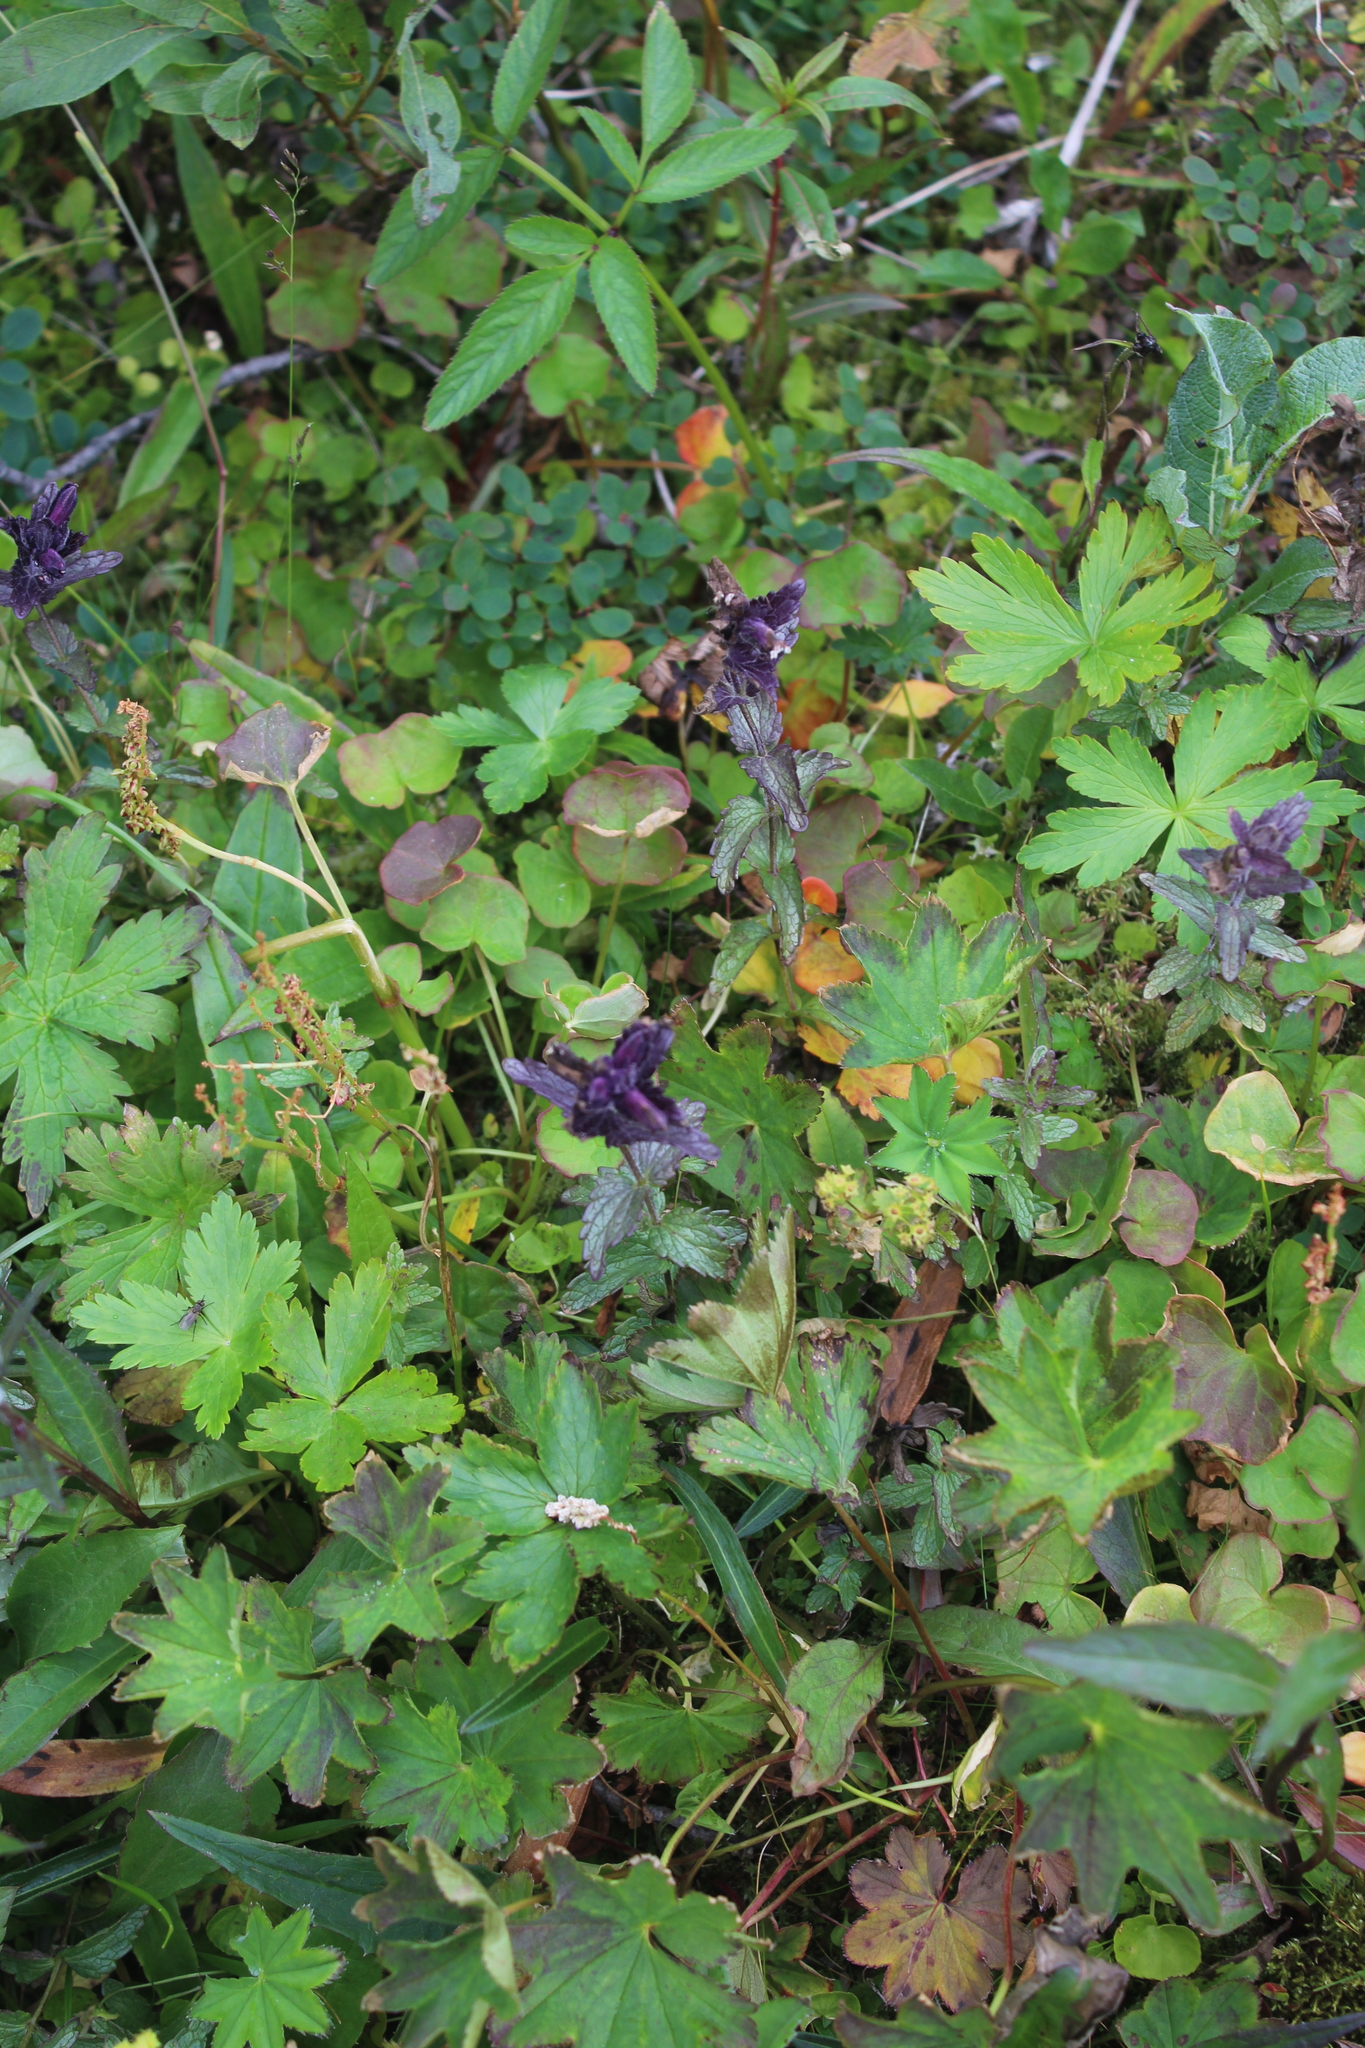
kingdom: Plantae
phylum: Tracheophyta
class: Magnoliopsida
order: Lamiales
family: Orobanchaceae
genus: Bartsia
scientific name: Bartsia alpina
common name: Alpine bartsia
